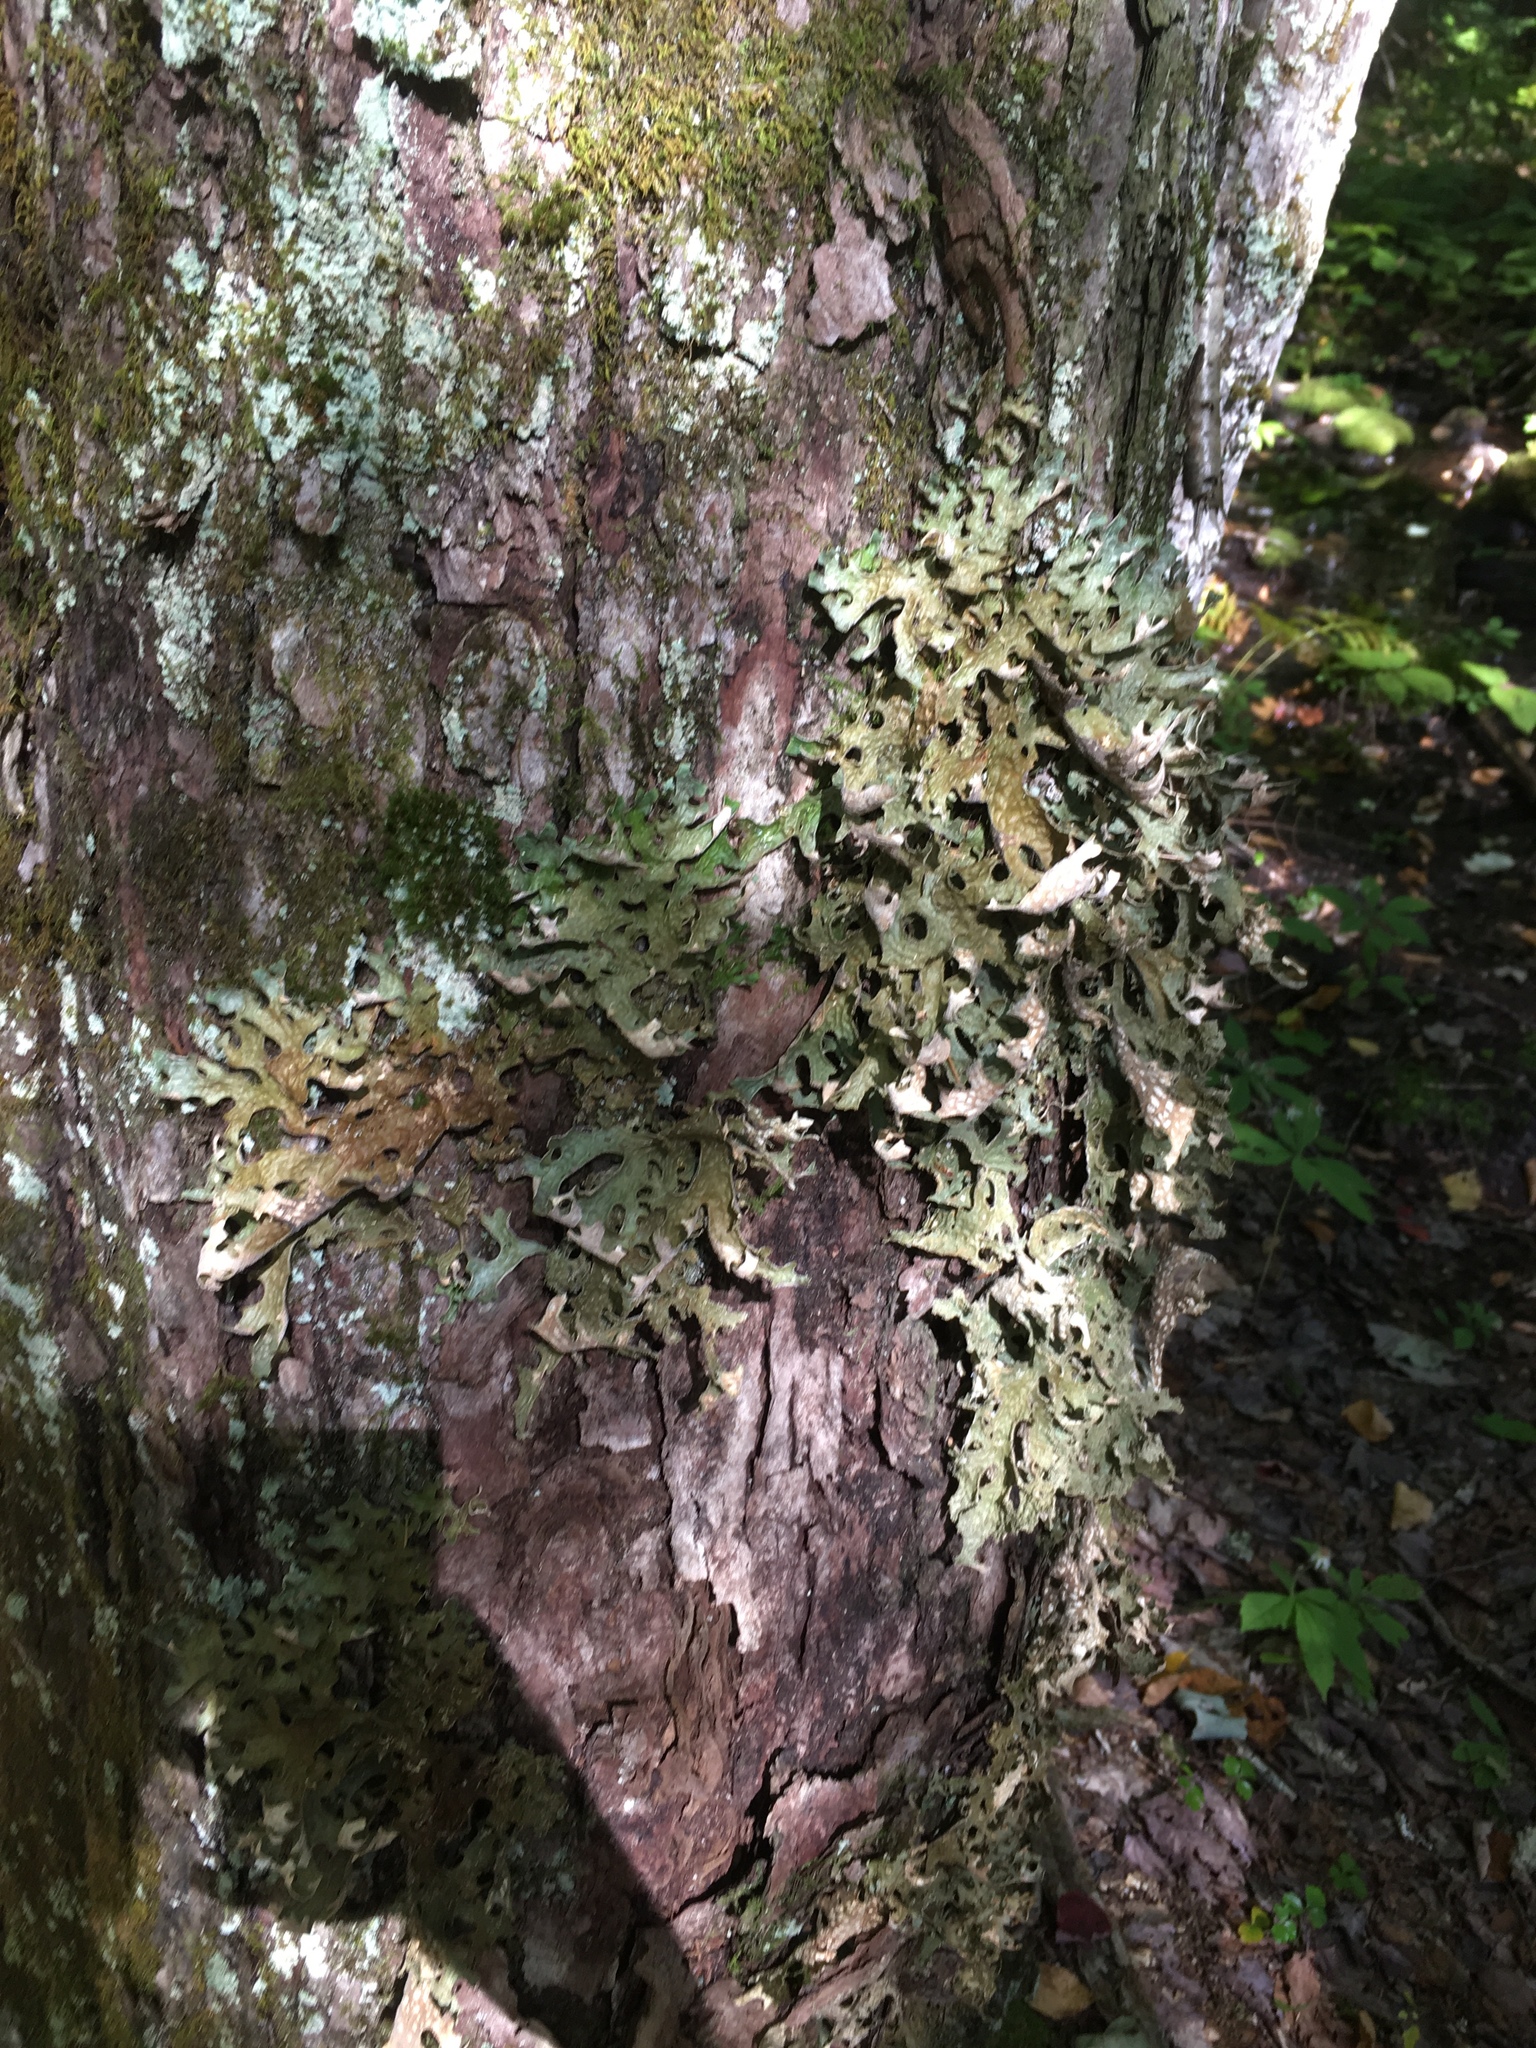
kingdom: Fungi
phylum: Ascomycota
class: Lecanoromycetes
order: Peltigerales
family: Lobariaceae
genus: Lobaria
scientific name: Lobaria pulmonaria
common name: Lungwort
